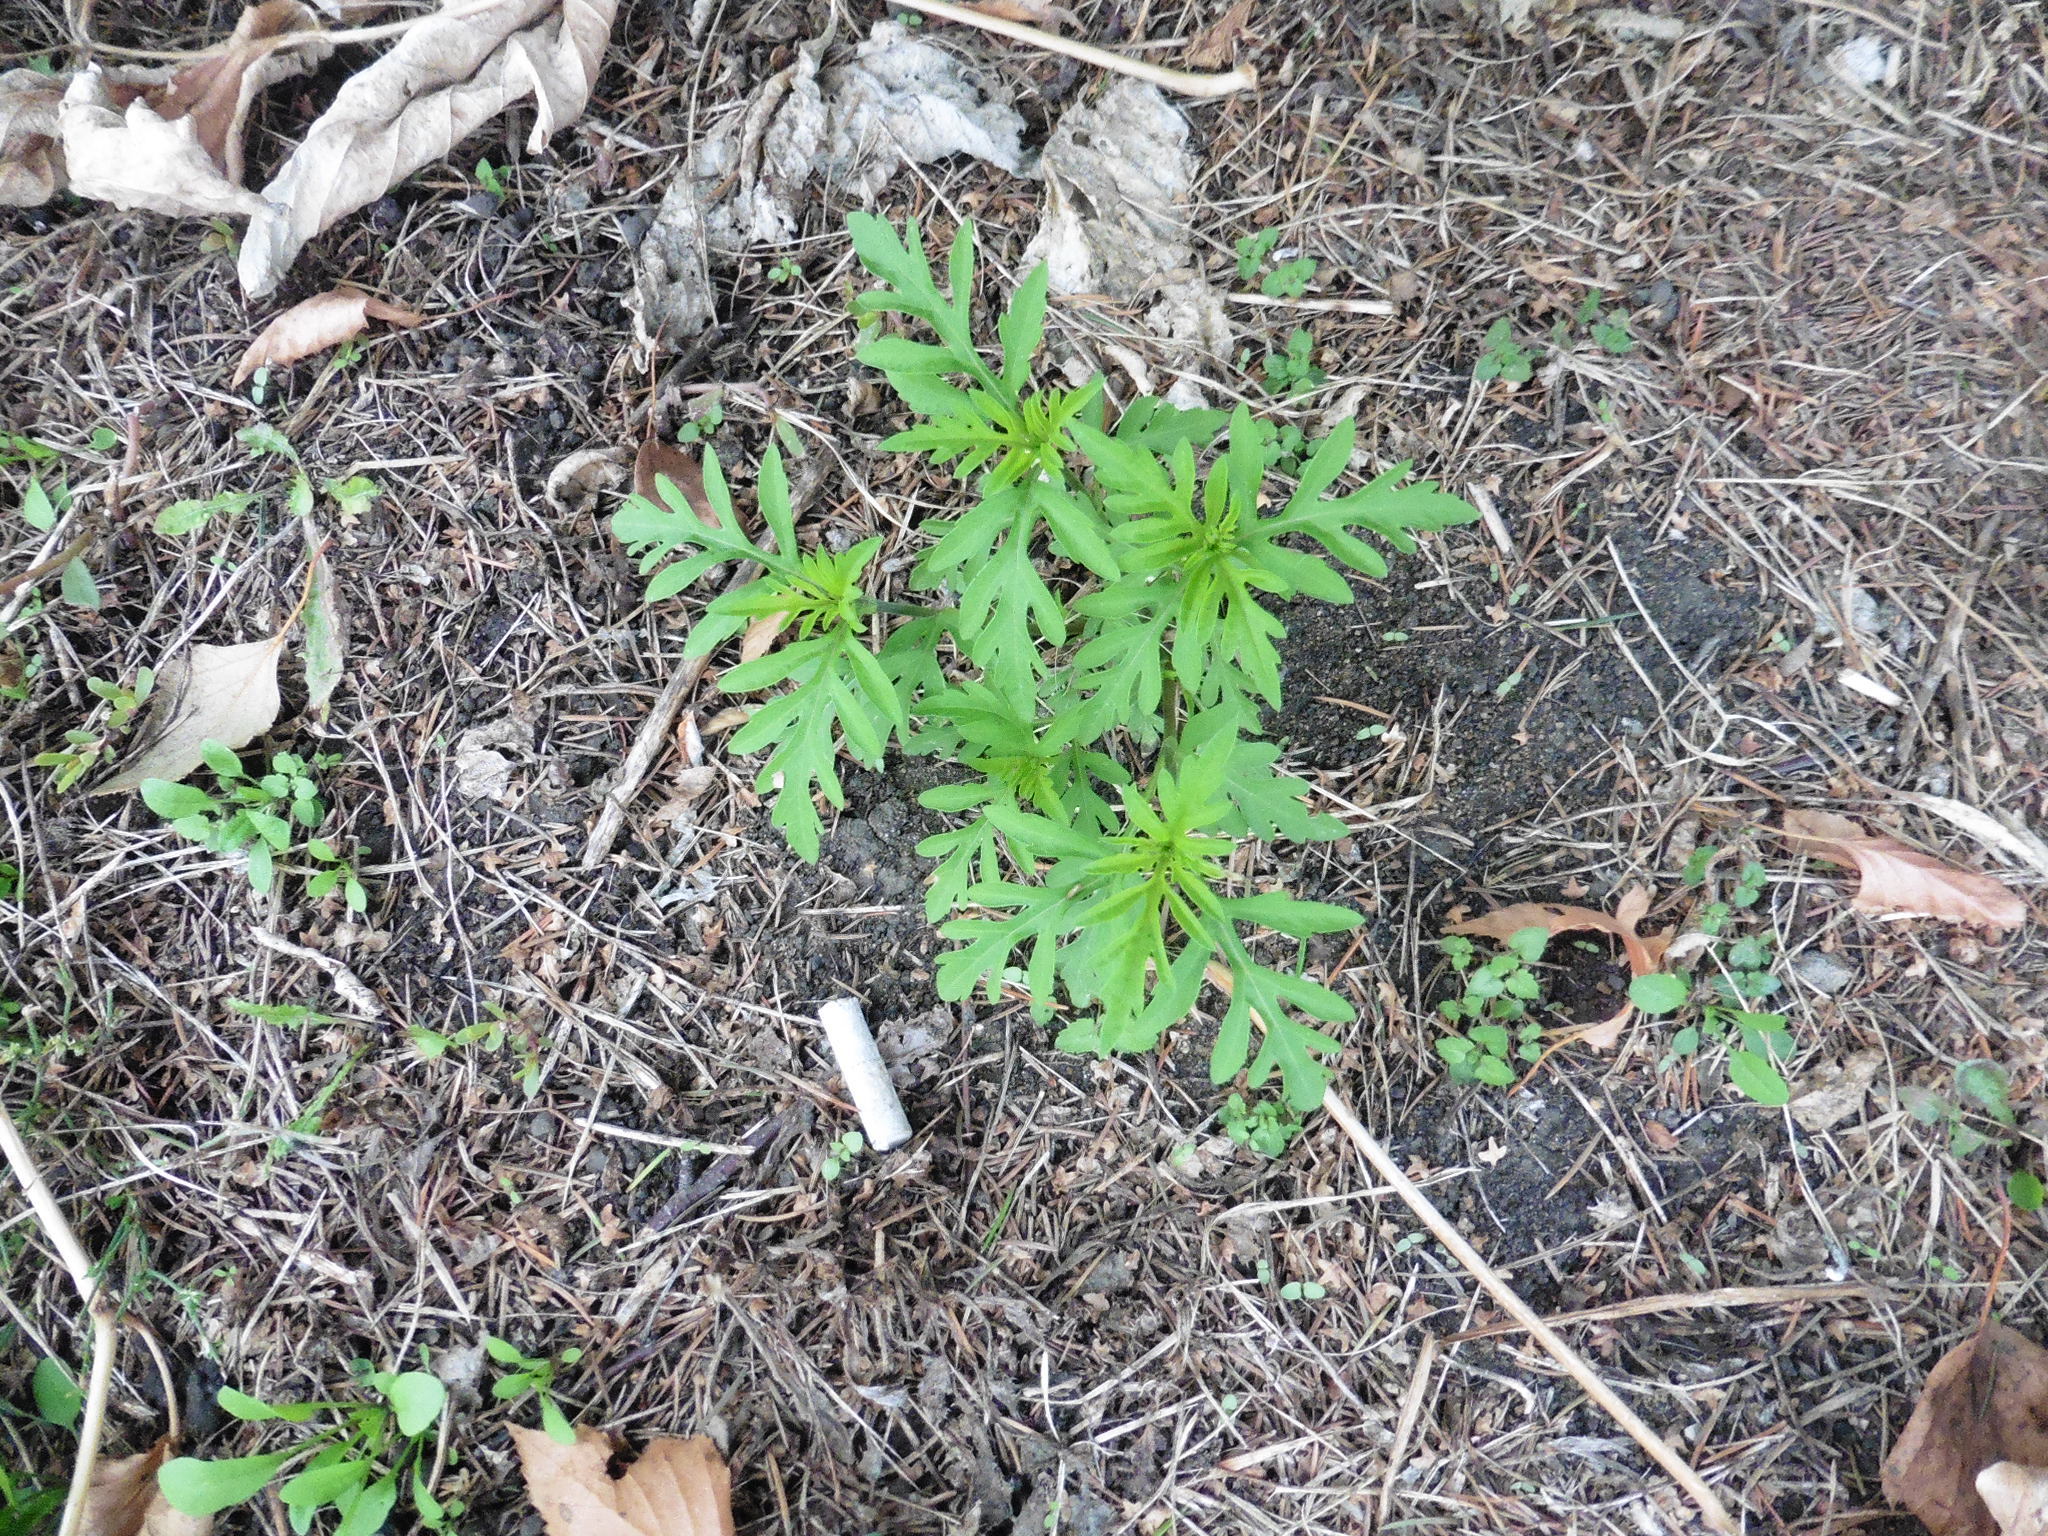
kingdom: Plantae
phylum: Tracheophyta
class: Magnoliopsida
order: Asterales
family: Asteraceae
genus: Ambrosia
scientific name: Ambrosia artemisiifolia
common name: Annual ragweed
